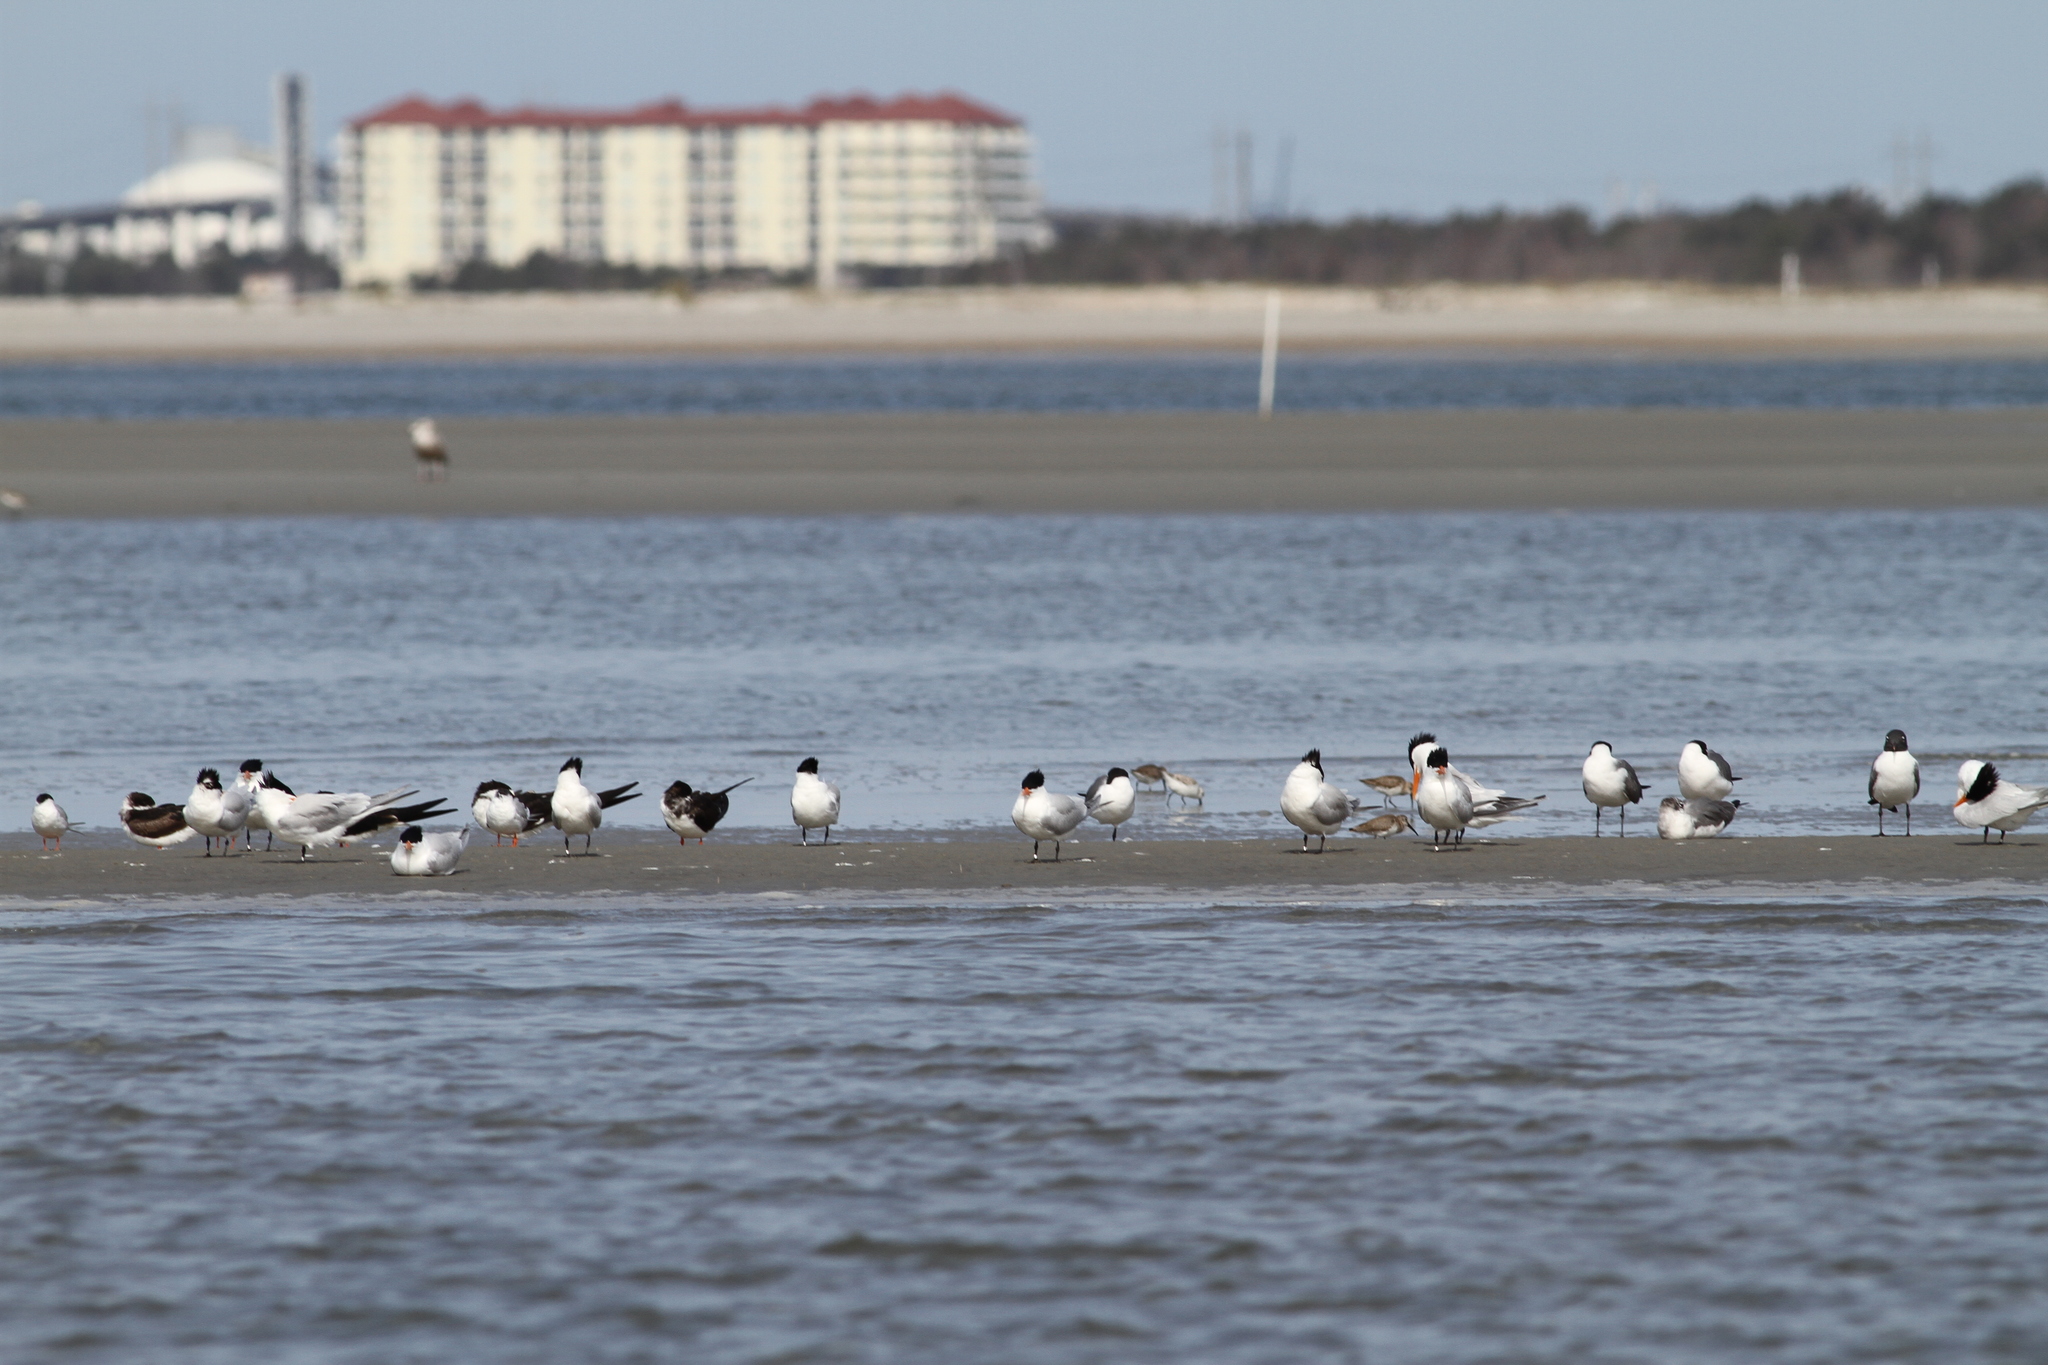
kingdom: Animalia
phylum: Chordata
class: Aves
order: Charadriiformes
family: Scolopacidae
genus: Calidris
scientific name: Calidris alpina
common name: Dunlin
